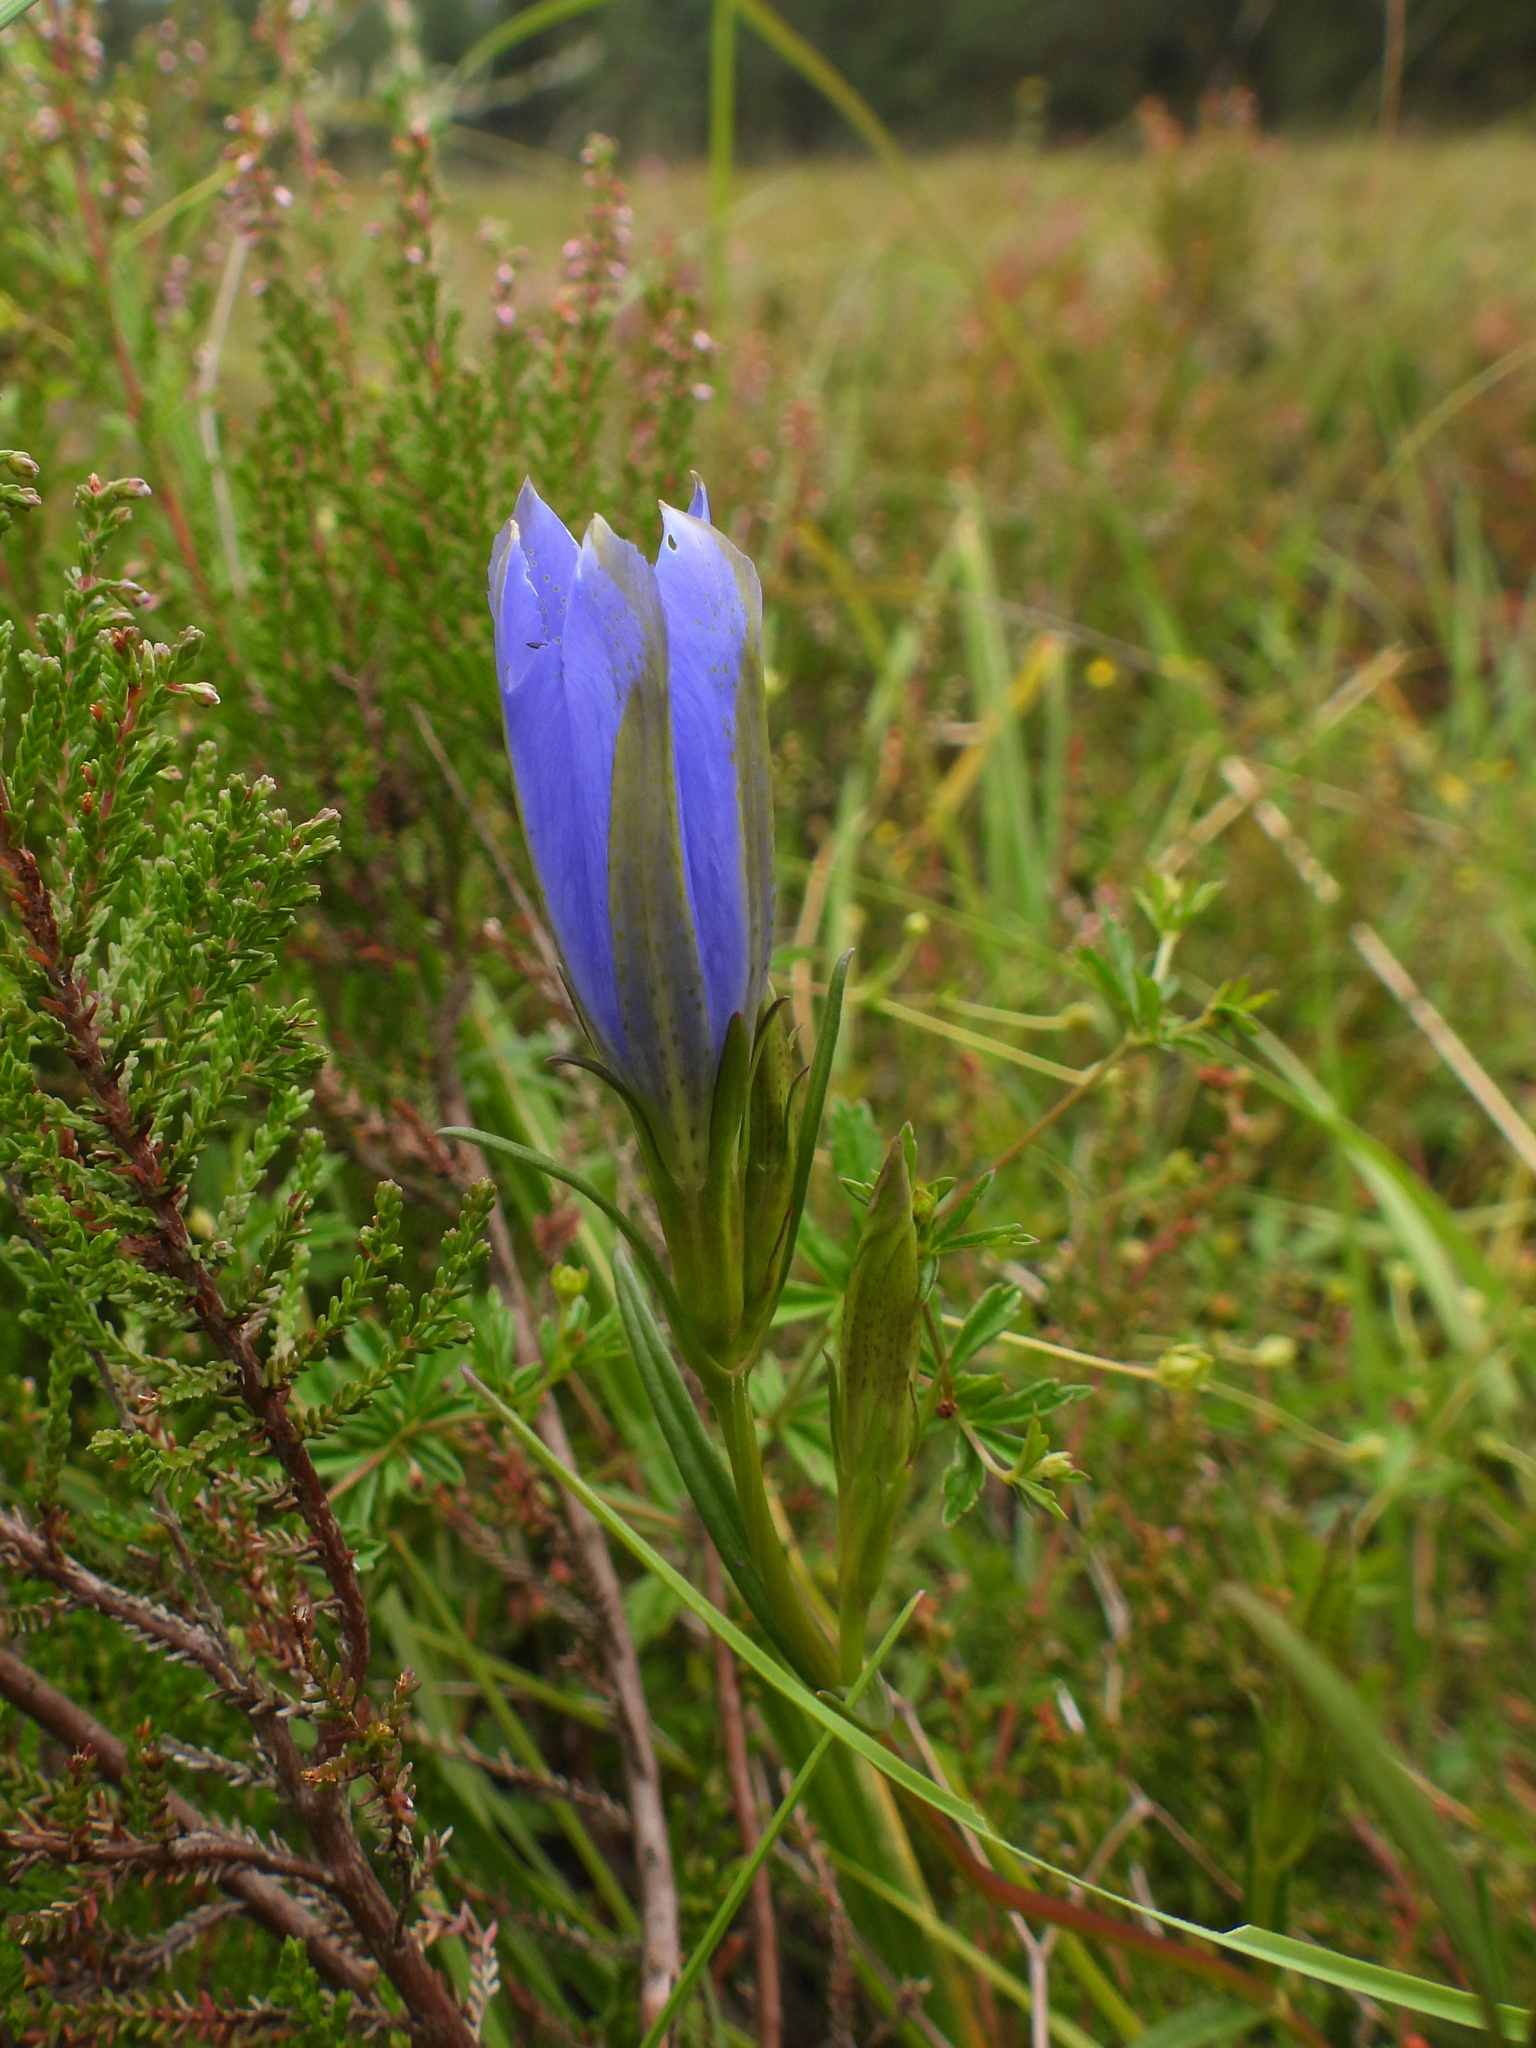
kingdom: Plantae
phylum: Tracheophyta
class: Magnoliopsida
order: Gentianales
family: Gentianaceae
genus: Gentiana
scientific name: Gentiana pneumonanthe
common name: Marsh gentian
